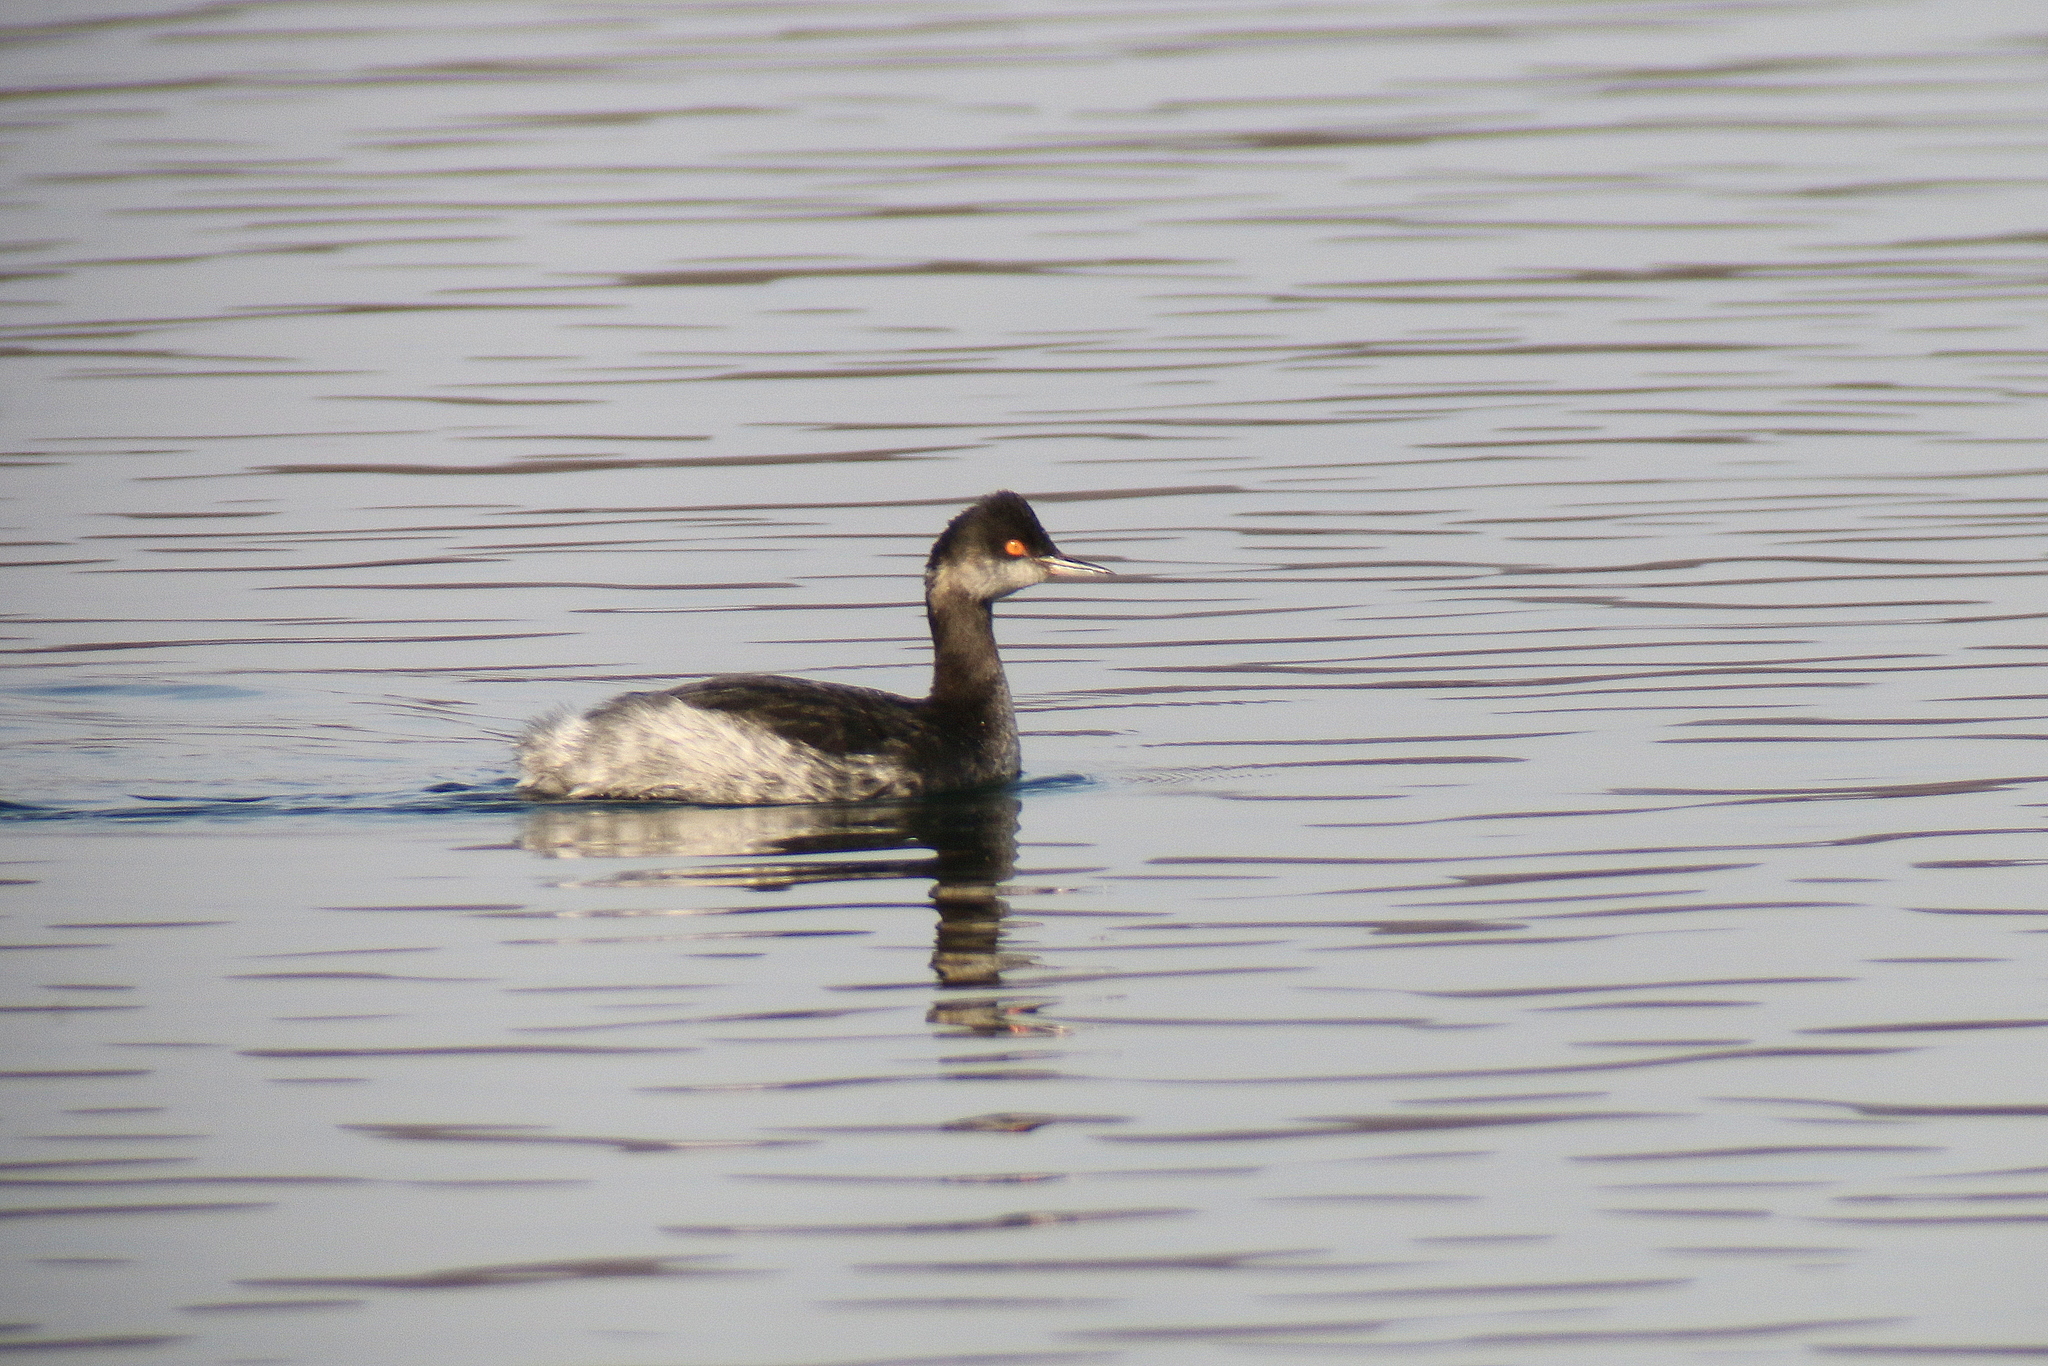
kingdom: Animalia
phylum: Chordata
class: Aves
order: Podicipediformes
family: Podicipedidae
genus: Podiceps
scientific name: Podiceps nigricollis
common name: Black-necked grebe
